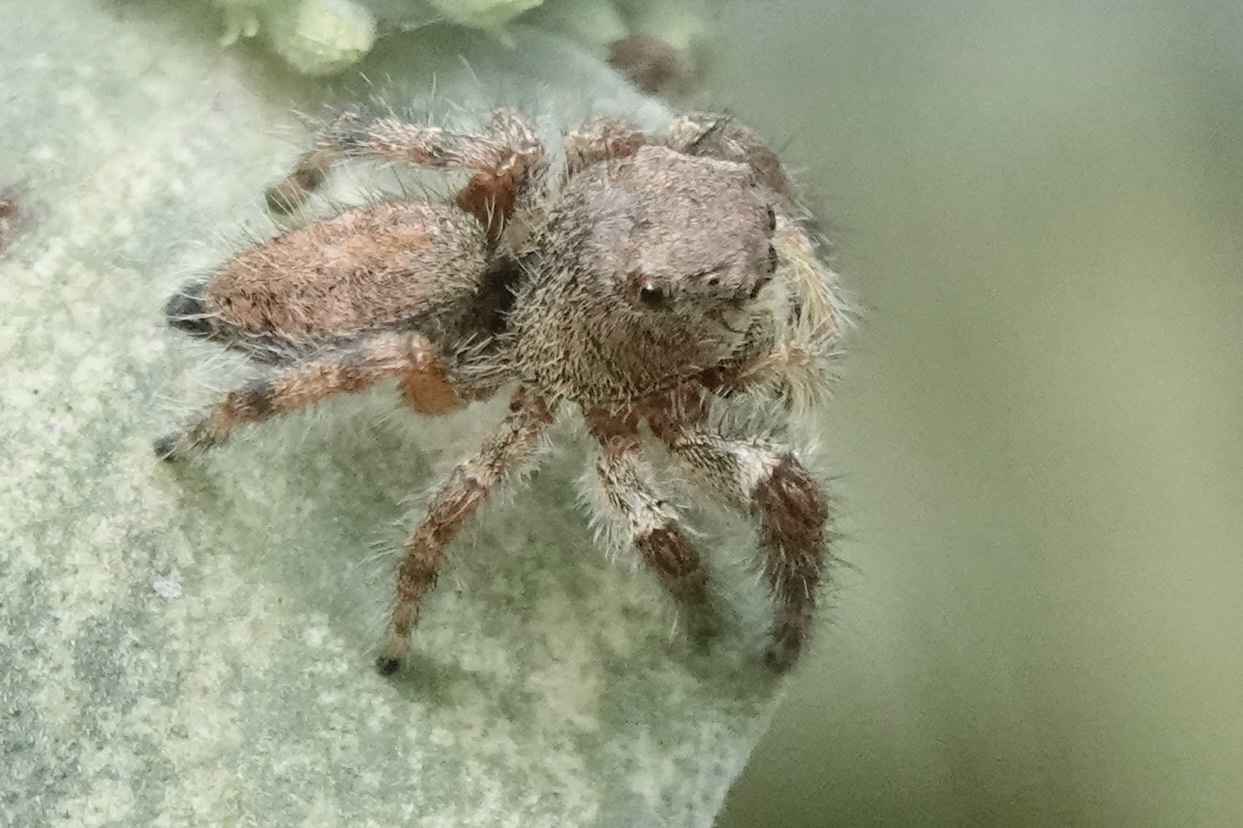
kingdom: Animalia
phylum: Arthropoda
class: Arachnida
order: Araneae
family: Salticidae
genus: Phidippus
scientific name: Phidippus princeps
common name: Grayish jumping spider
